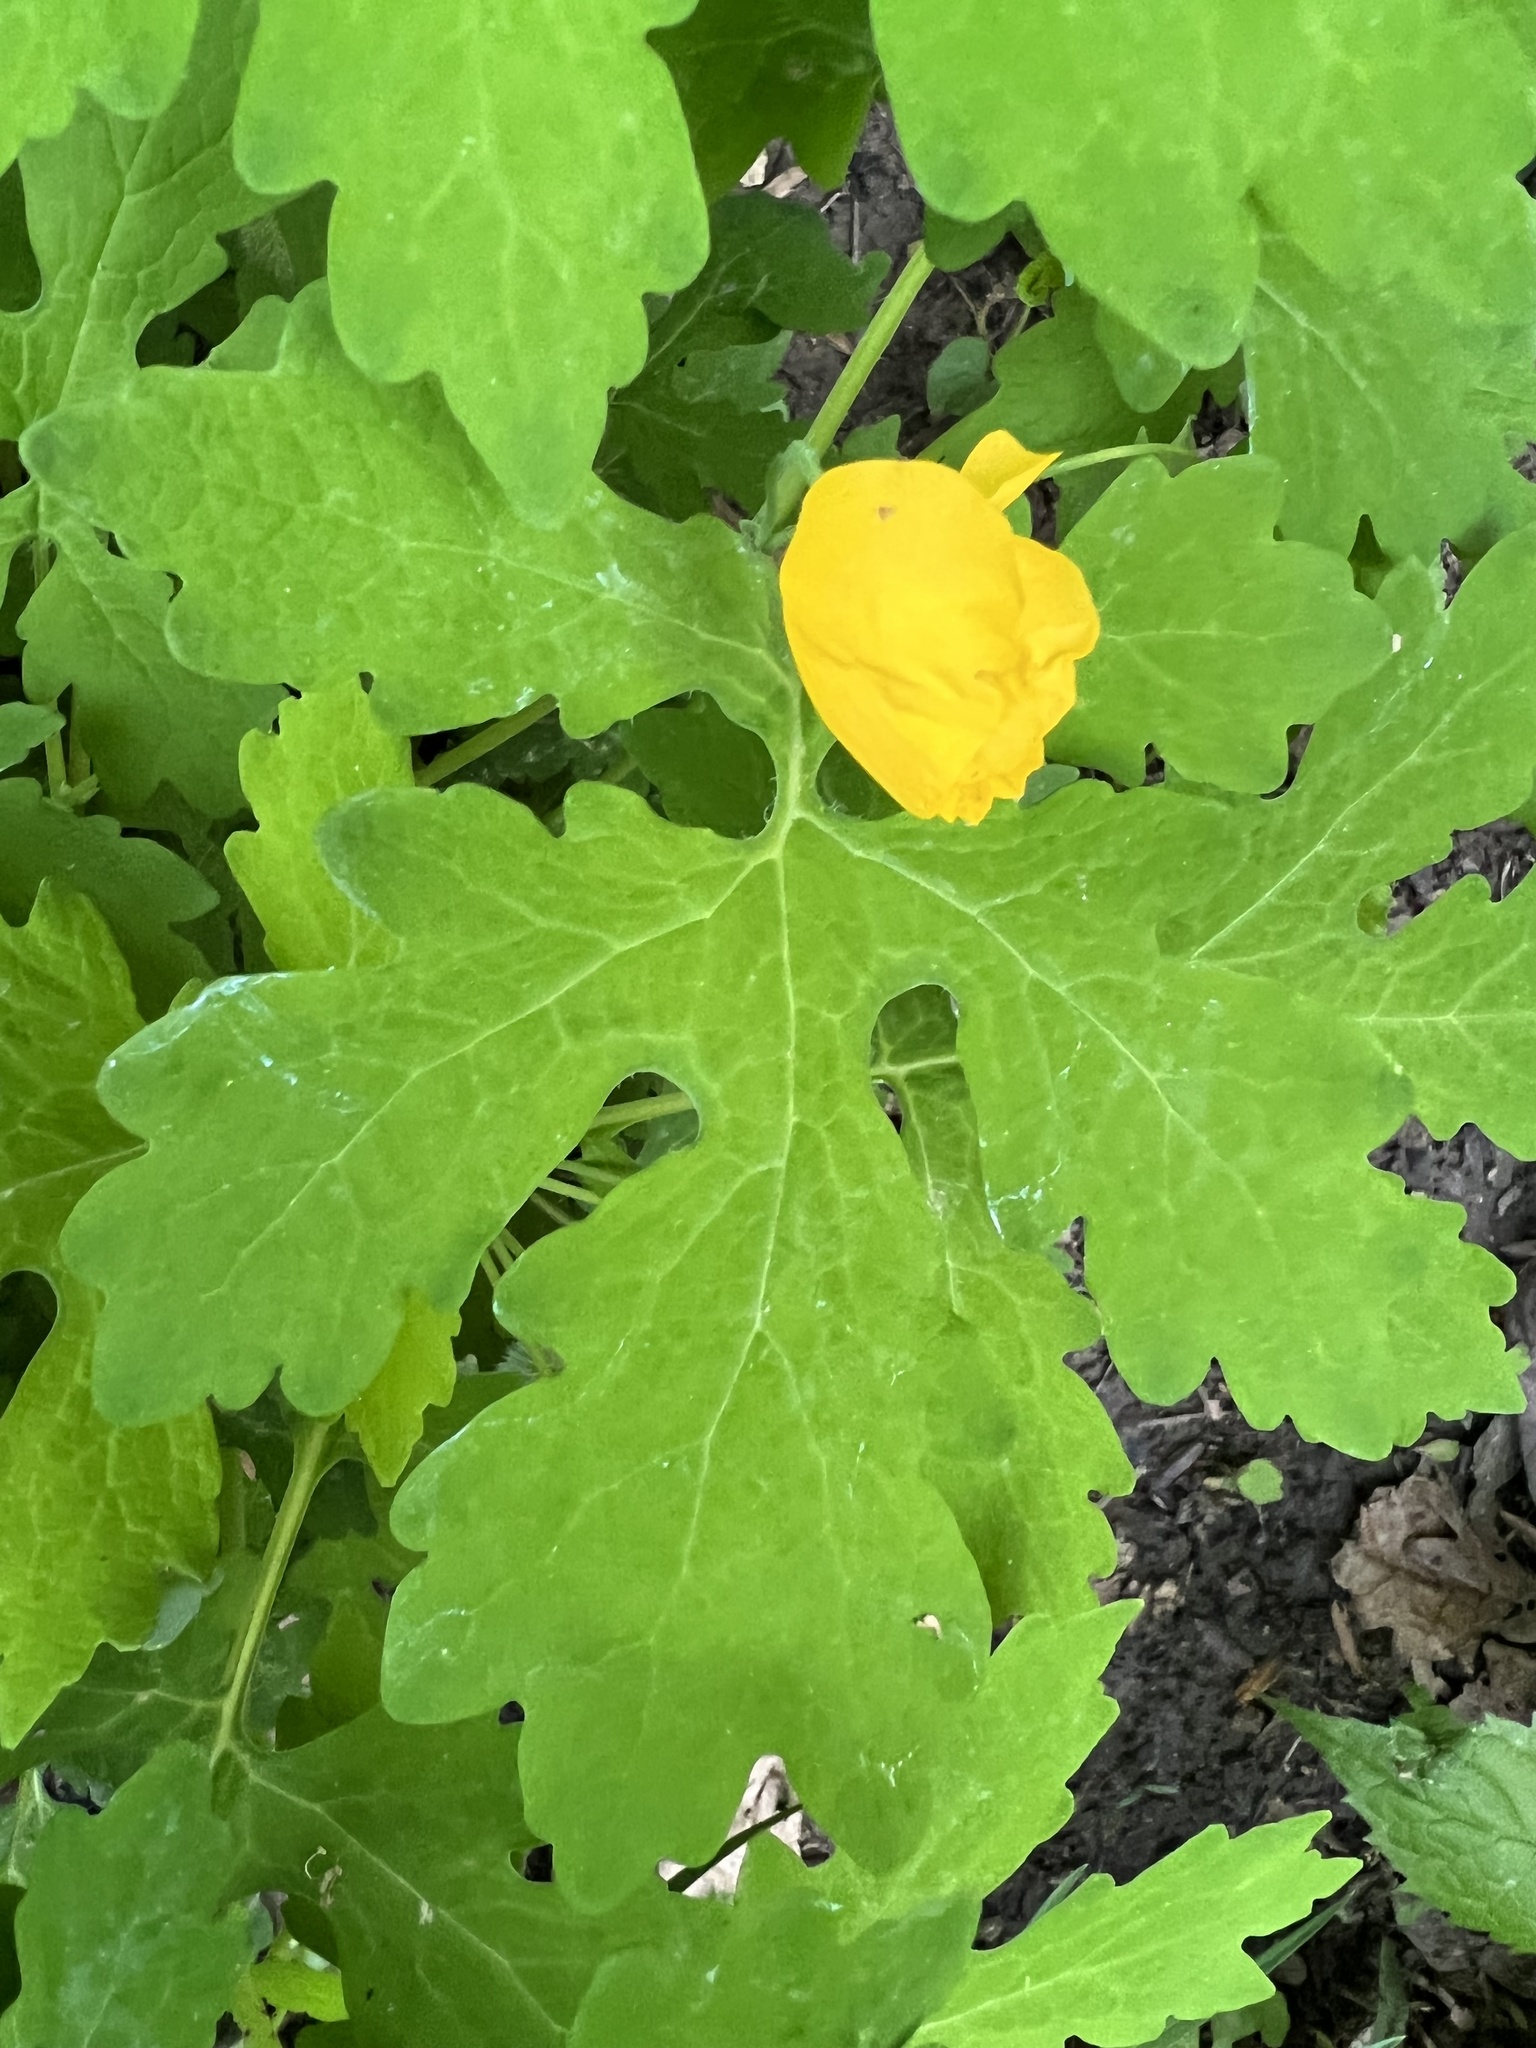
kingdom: Plantae
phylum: Tracheophyta
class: Magnoliopsida
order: Ranunculales
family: Papaveraceae
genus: Stylophorum
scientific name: Stylophorum diphyllum
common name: Celandine poppy
